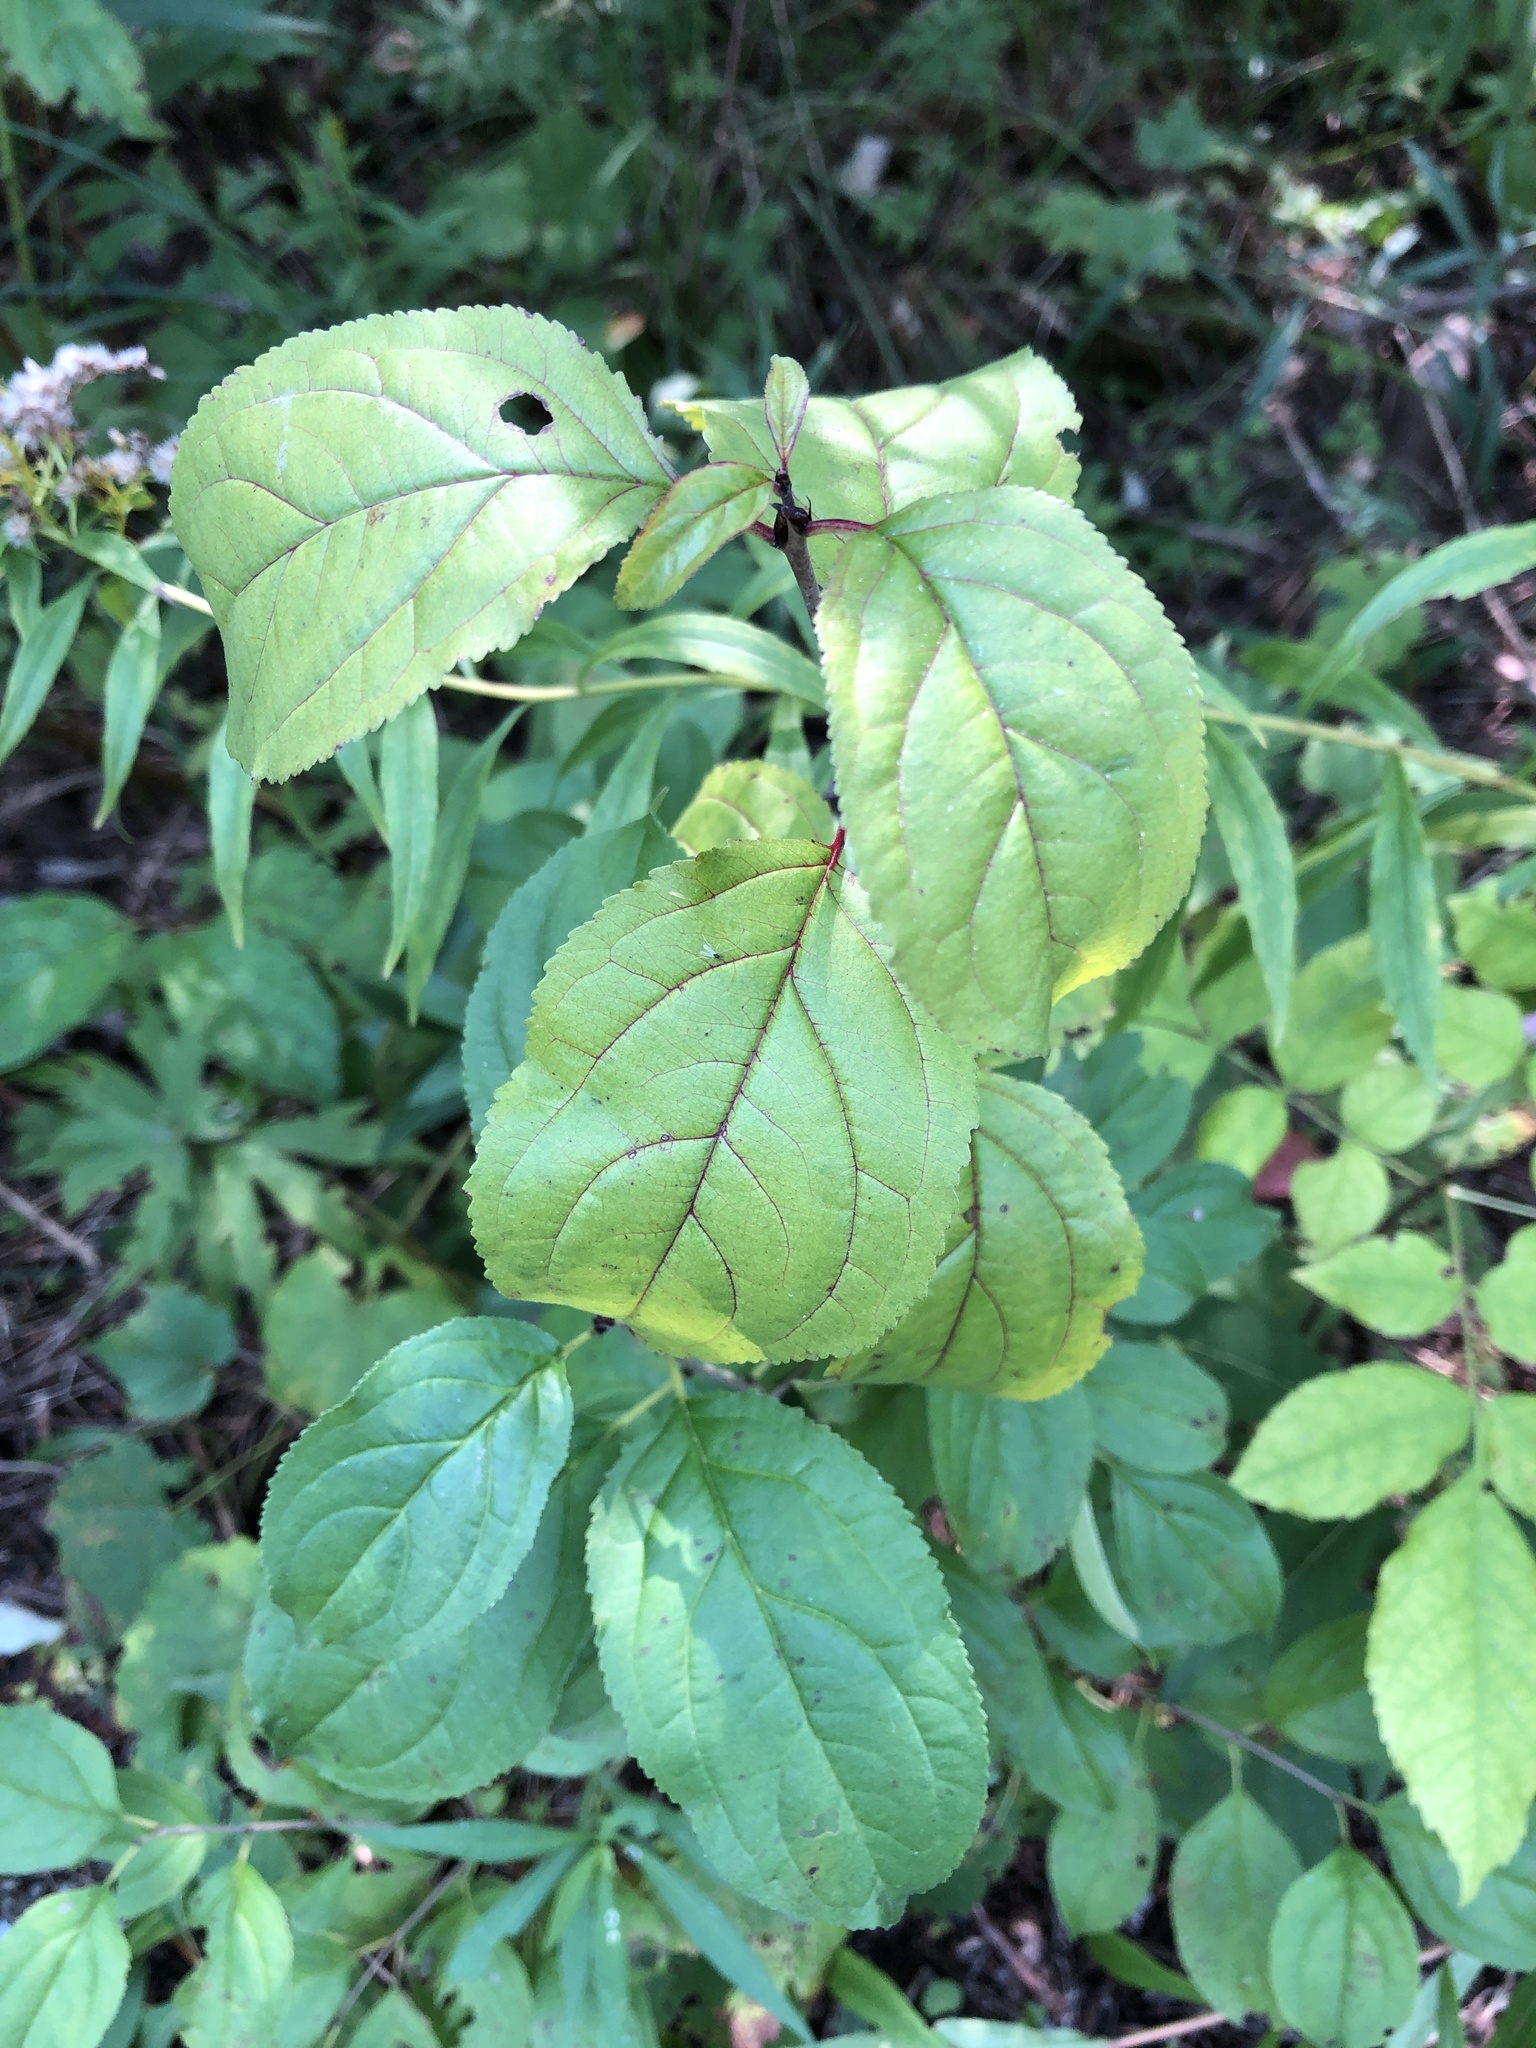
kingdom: Plantae
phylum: Tracheophyta
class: Magnoliopsida
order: Rosales
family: Rhamnaceae
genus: Rhamnus
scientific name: Rhamnus cathartica
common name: Common buckthorn
